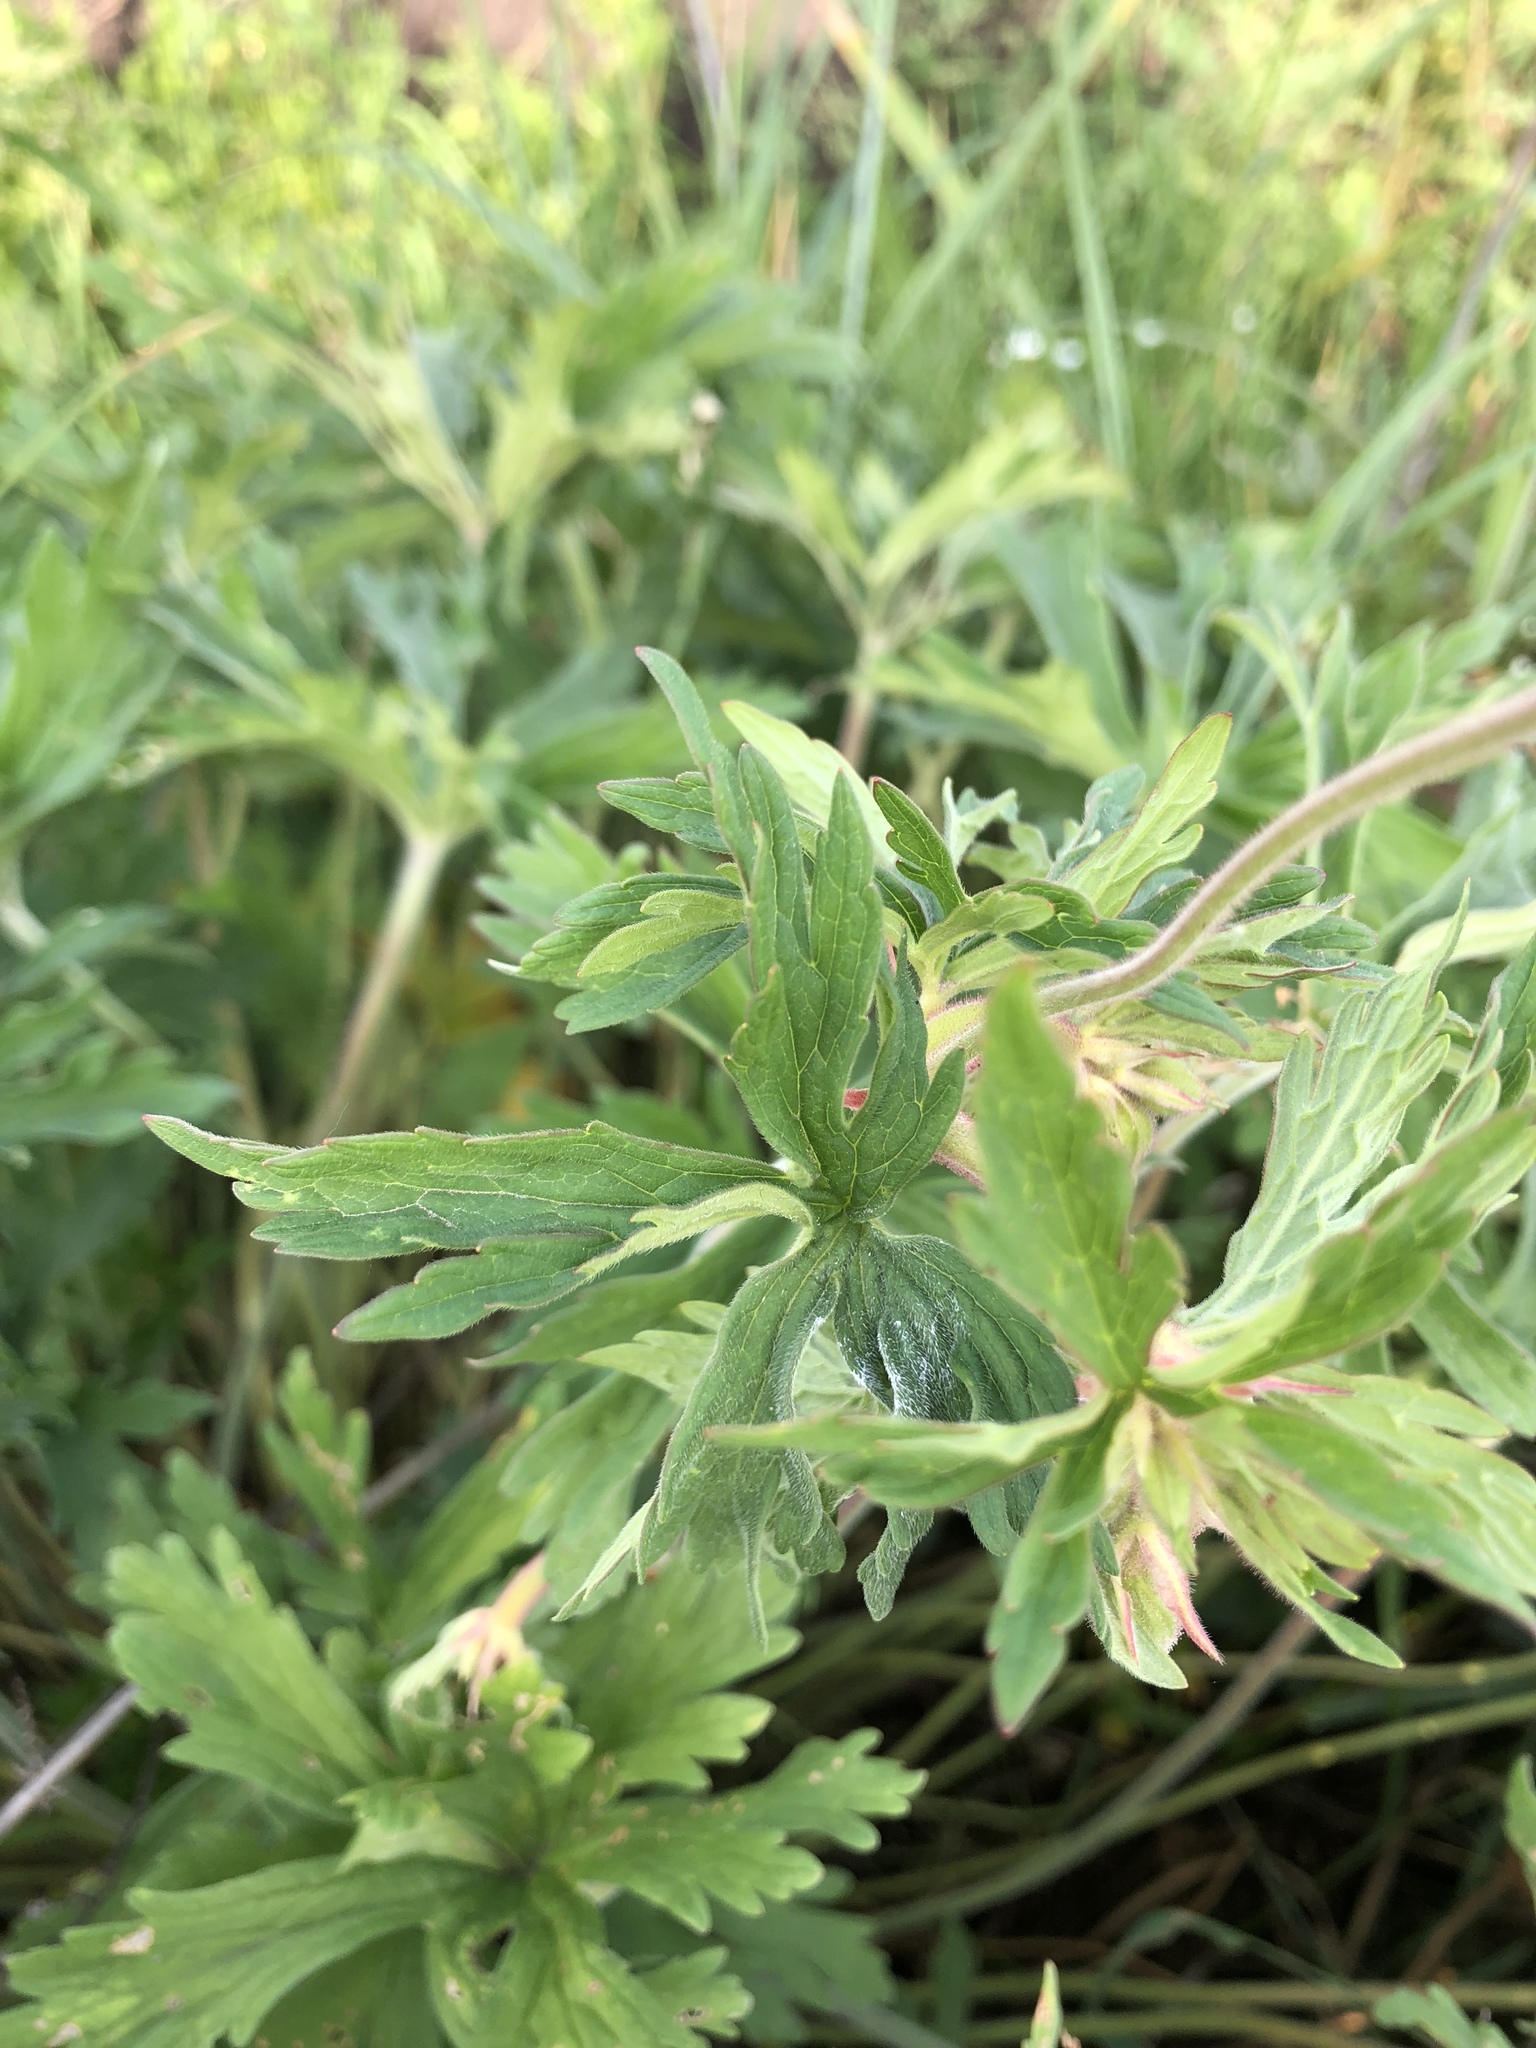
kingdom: Plantae
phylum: Tracheophyta
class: Magnoliopsida
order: Geraniales
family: Geraniaceae
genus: Geranium
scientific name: Geranium pratense
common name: Meadow crane's-bill
